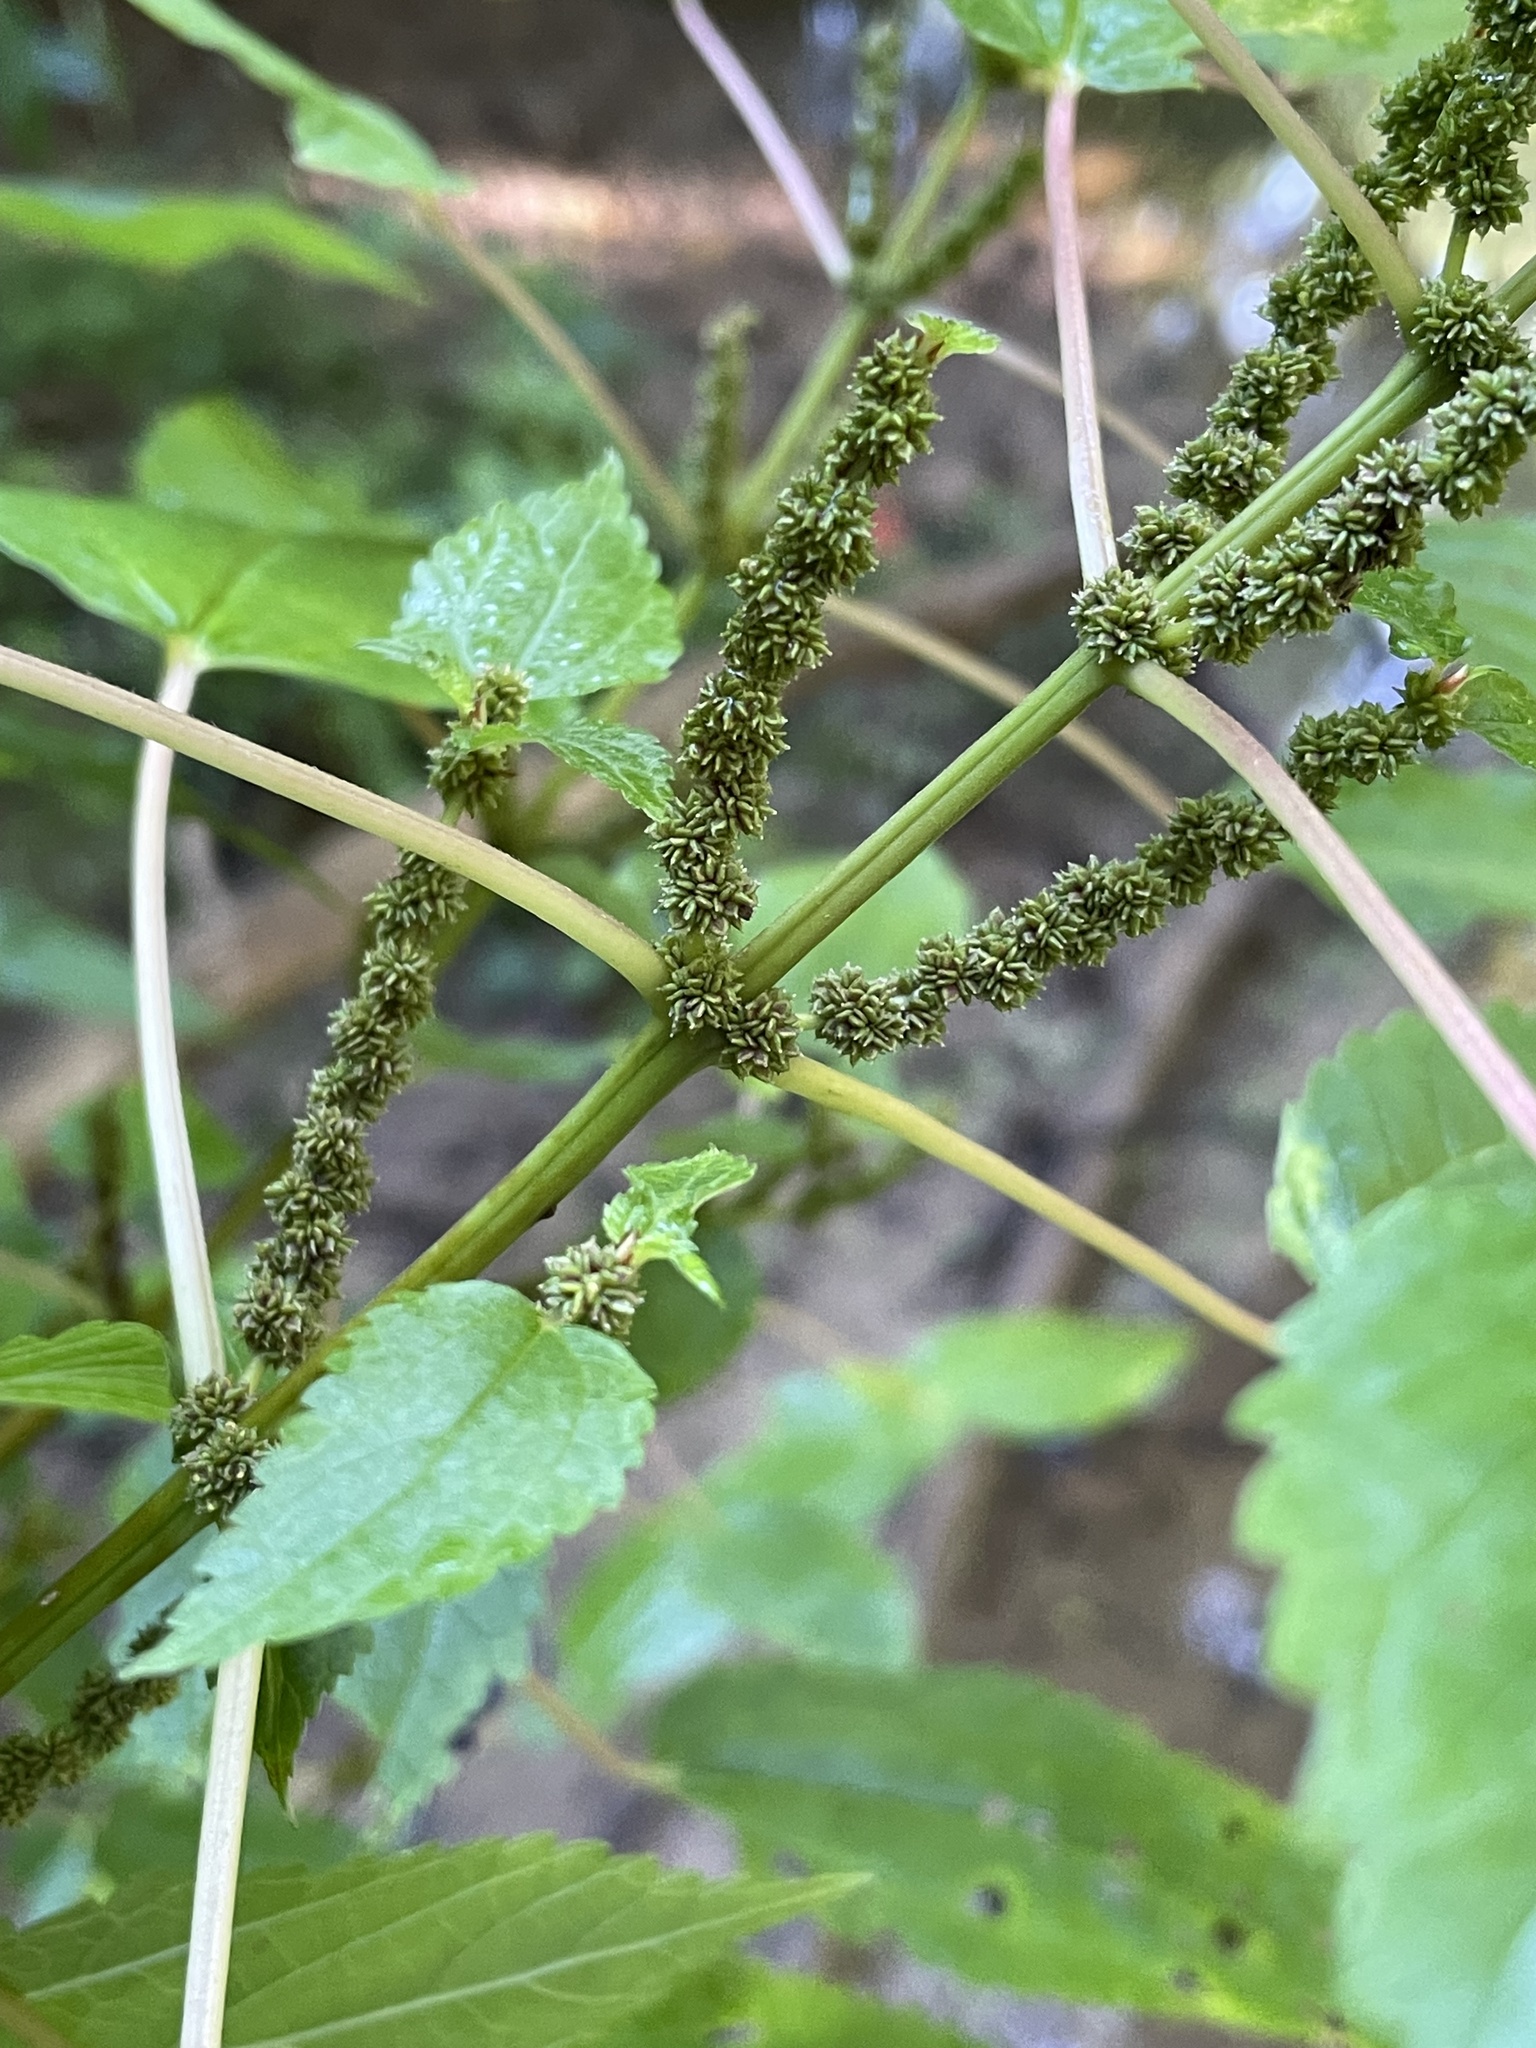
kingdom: Plantae
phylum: Tracheophyta
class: Magnoliopsida
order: Rosales
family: Urticaceae
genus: Boehmeria
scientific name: Boehmeria cylindrica
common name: Bog-hemp
